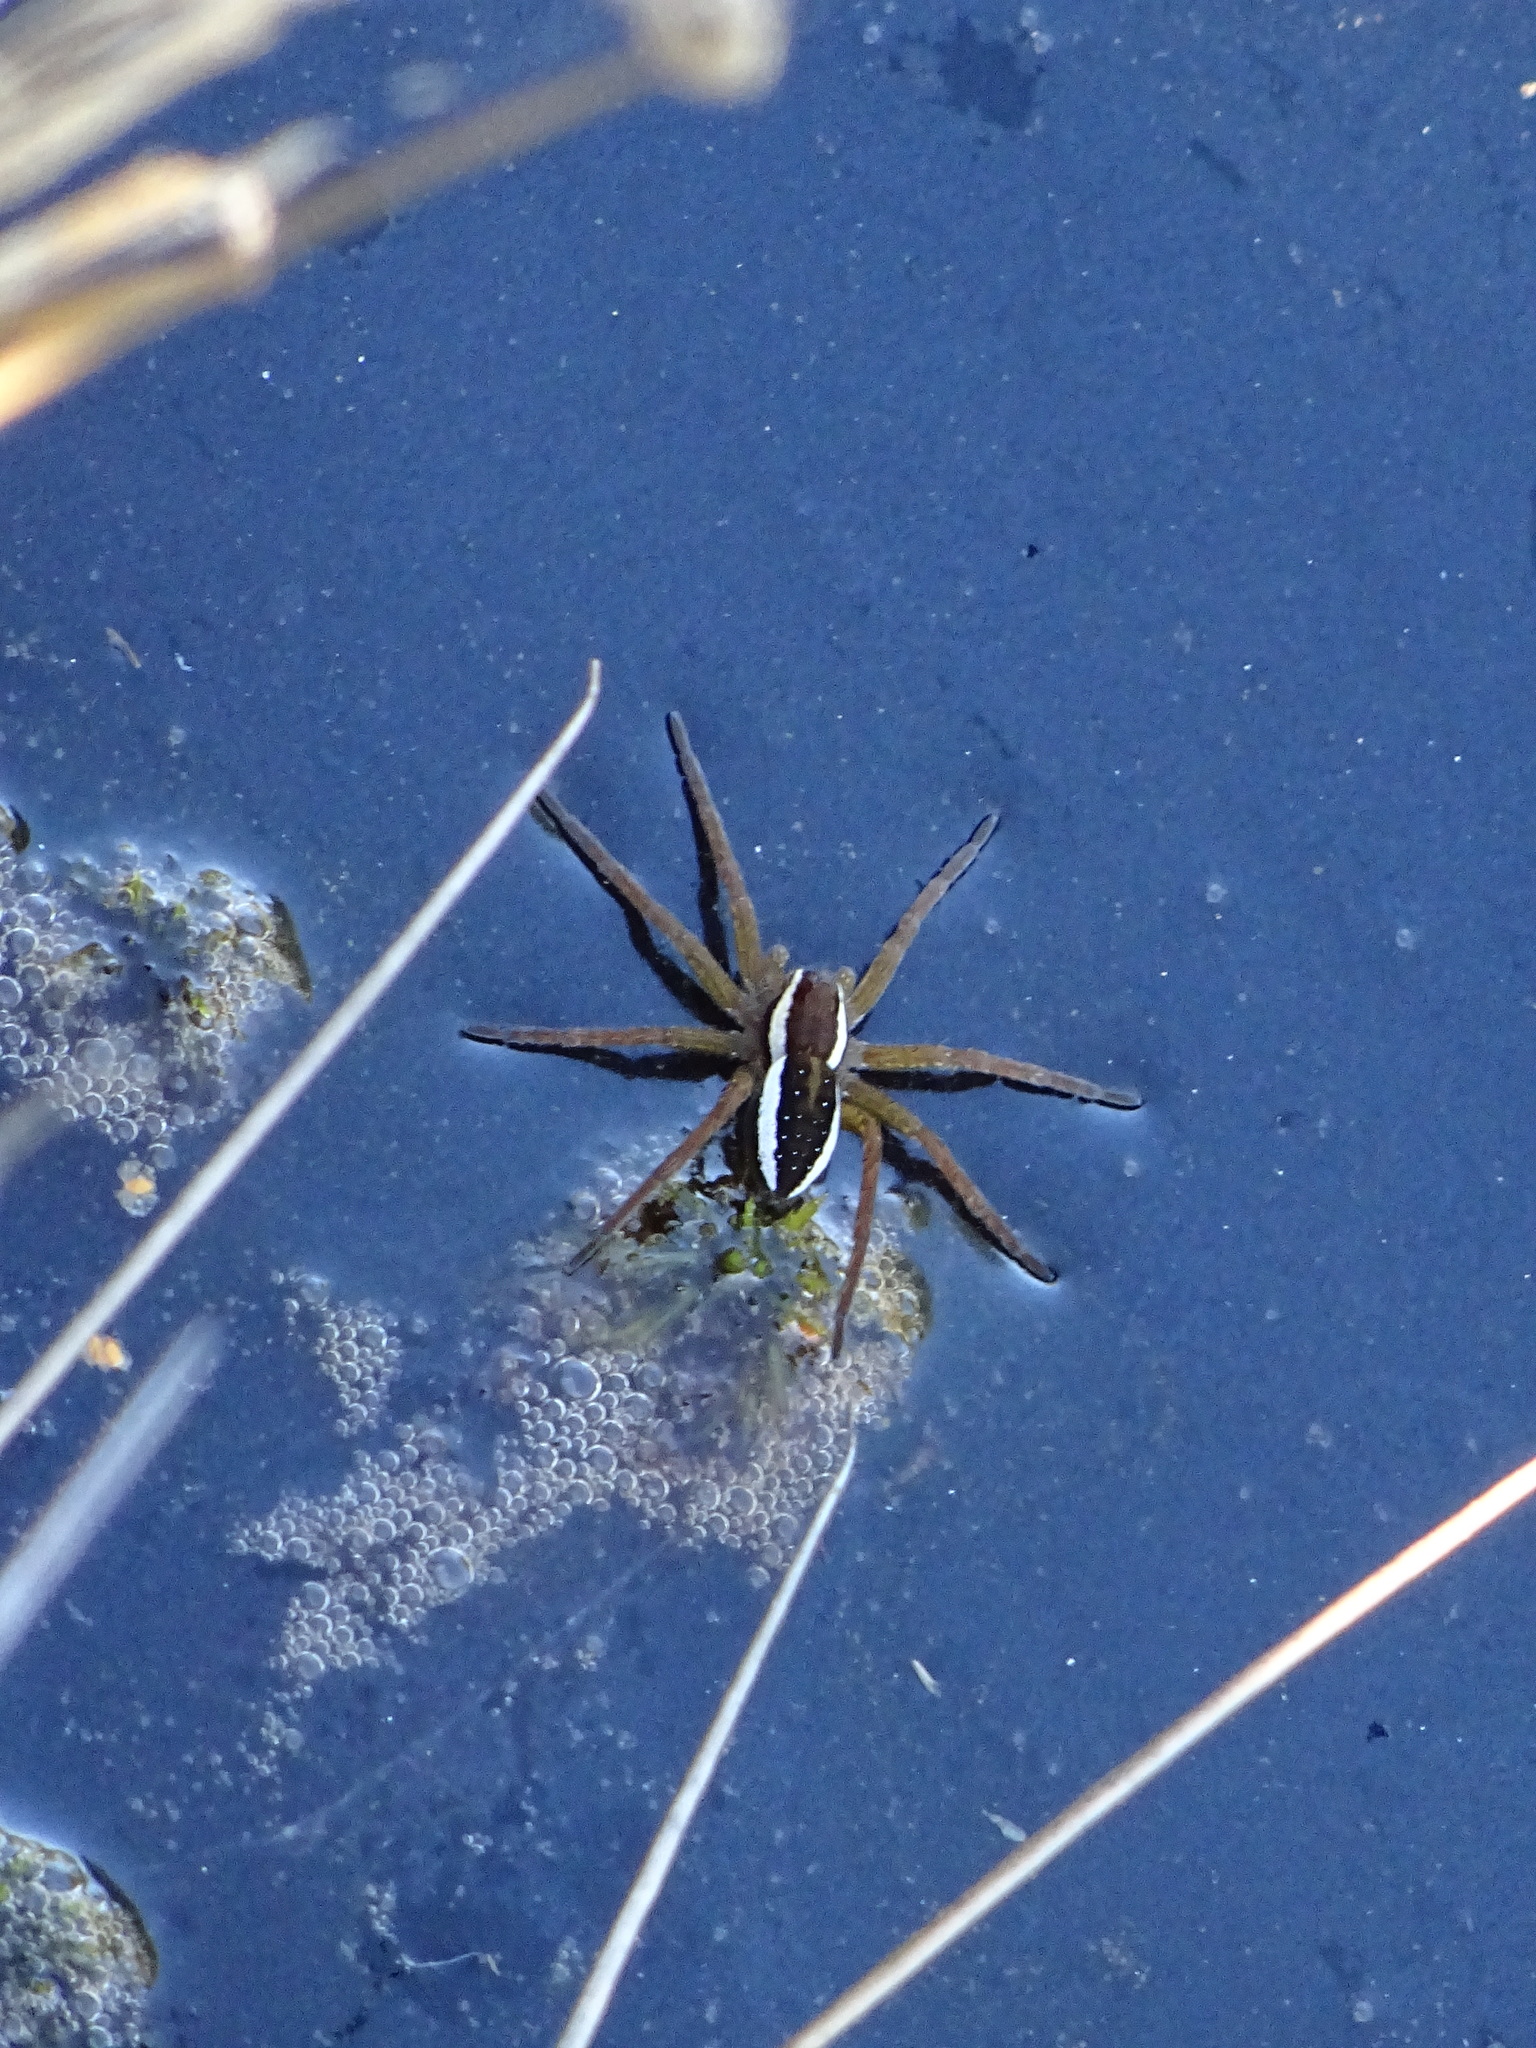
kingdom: Animalia
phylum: Arthropoda
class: Arachnida
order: Araneae
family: Pisauridae
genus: Dolomedes
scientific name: Dolomedes fimbriatus
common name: Raft spider
